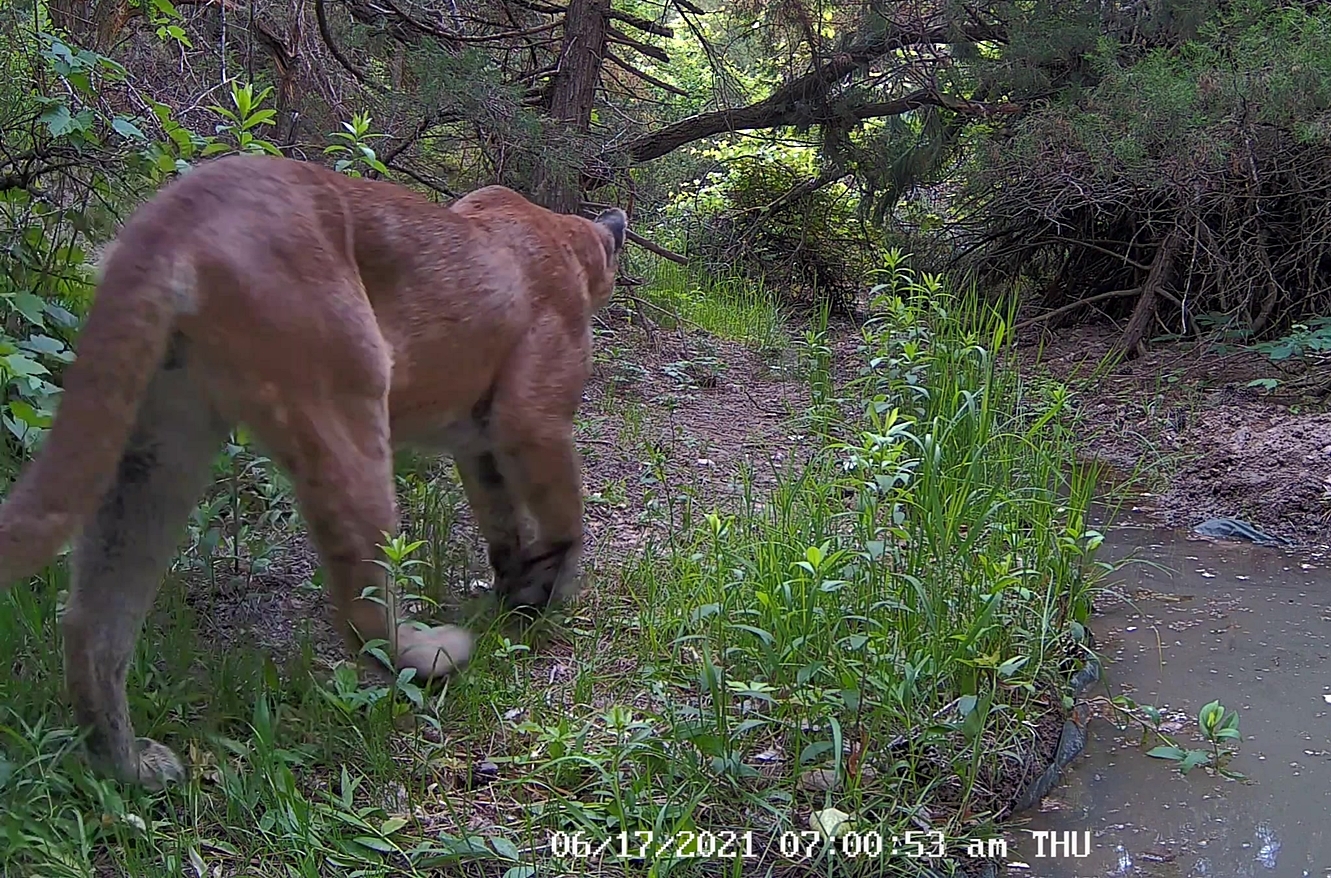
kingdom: Animalia
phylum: Chordata
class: Mammalia
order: Carnivora
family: Felidae
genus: Puma
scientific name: Puma concolor
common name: Puma
